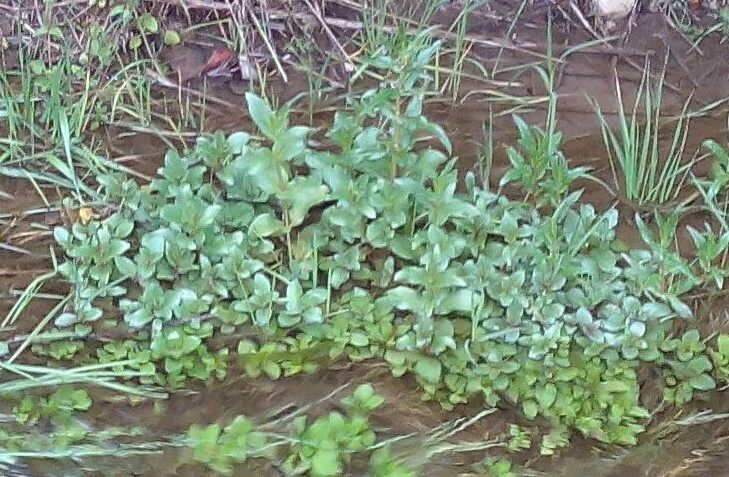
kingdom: Plantae
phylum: Tracheophyta
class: Magnoliopsida
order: Lamiales
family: Plantaginaceae
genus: Veronica
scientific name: Veronica anagallis-aquatica
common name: Water speedwell
